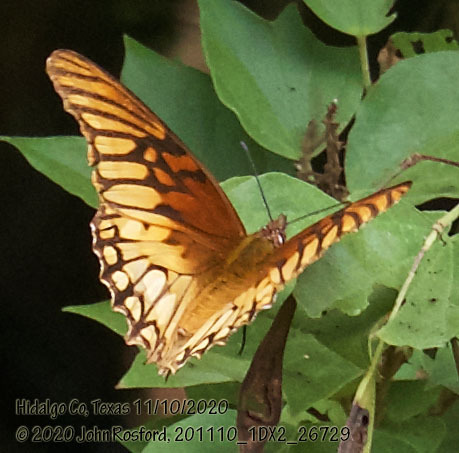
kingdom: Animalia
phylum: Arthropoda
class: Insecta
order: Lepidoptera
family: Nymphalidae
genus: Dione
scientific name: Dione moneta
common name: Mexican silverspot
